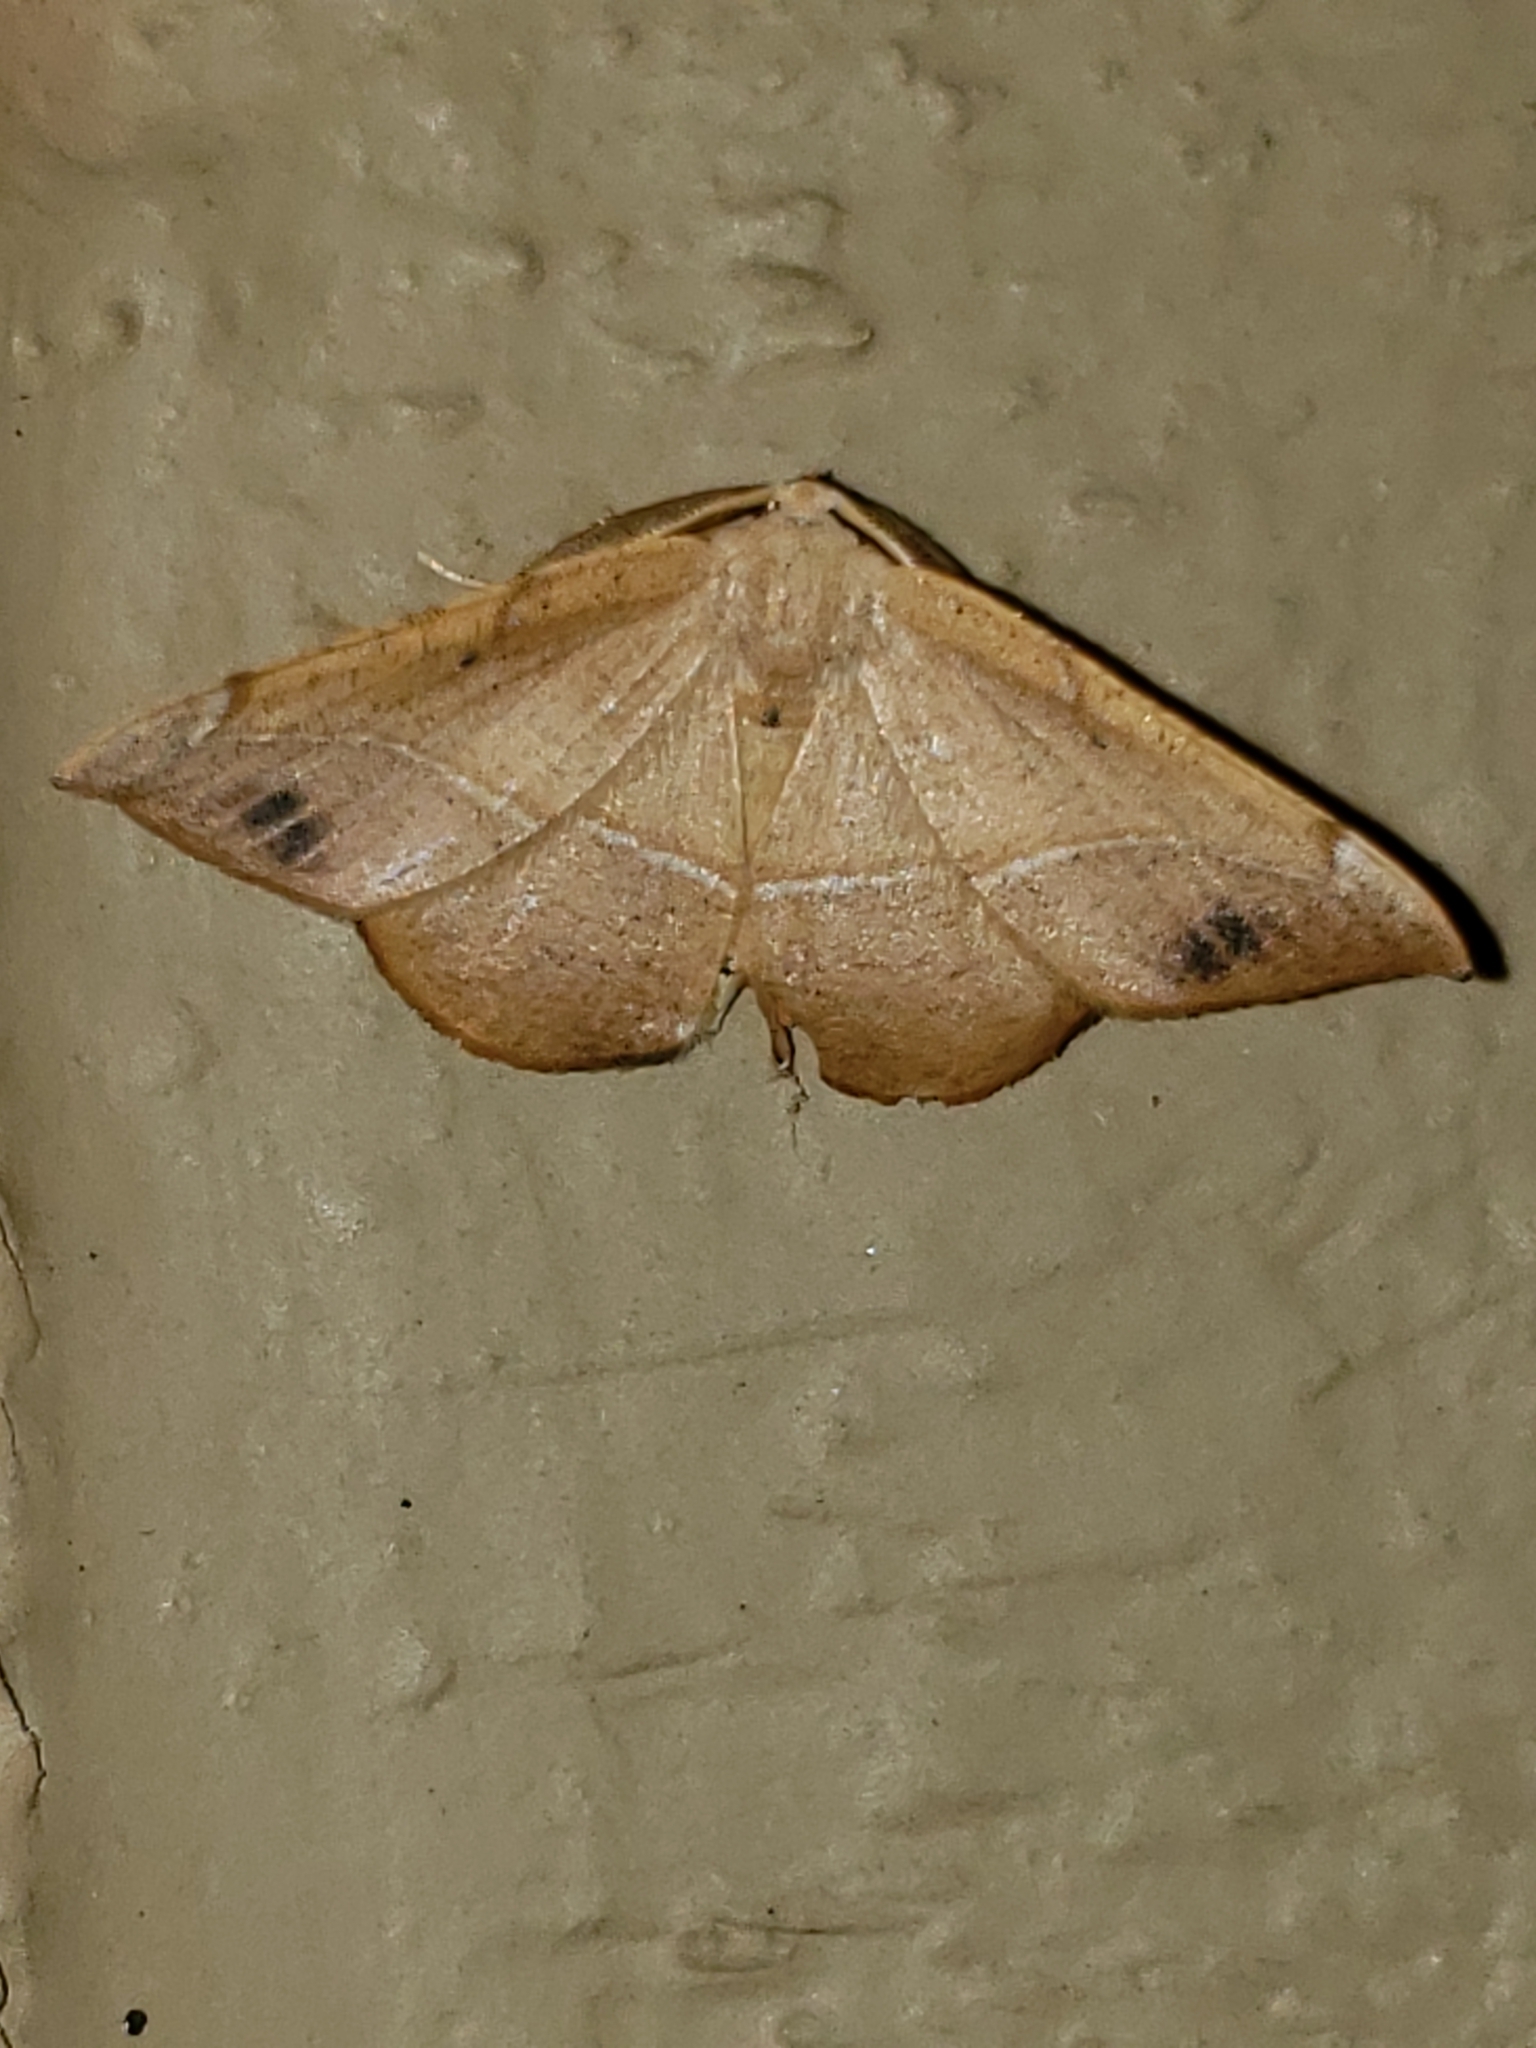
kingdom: Animalia
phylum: Arthropoda
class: Insecta
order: Lepidoptera
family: Geometridae
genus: Patalene
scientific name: Patalene olyzonaria
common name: Juniper geometer moth
